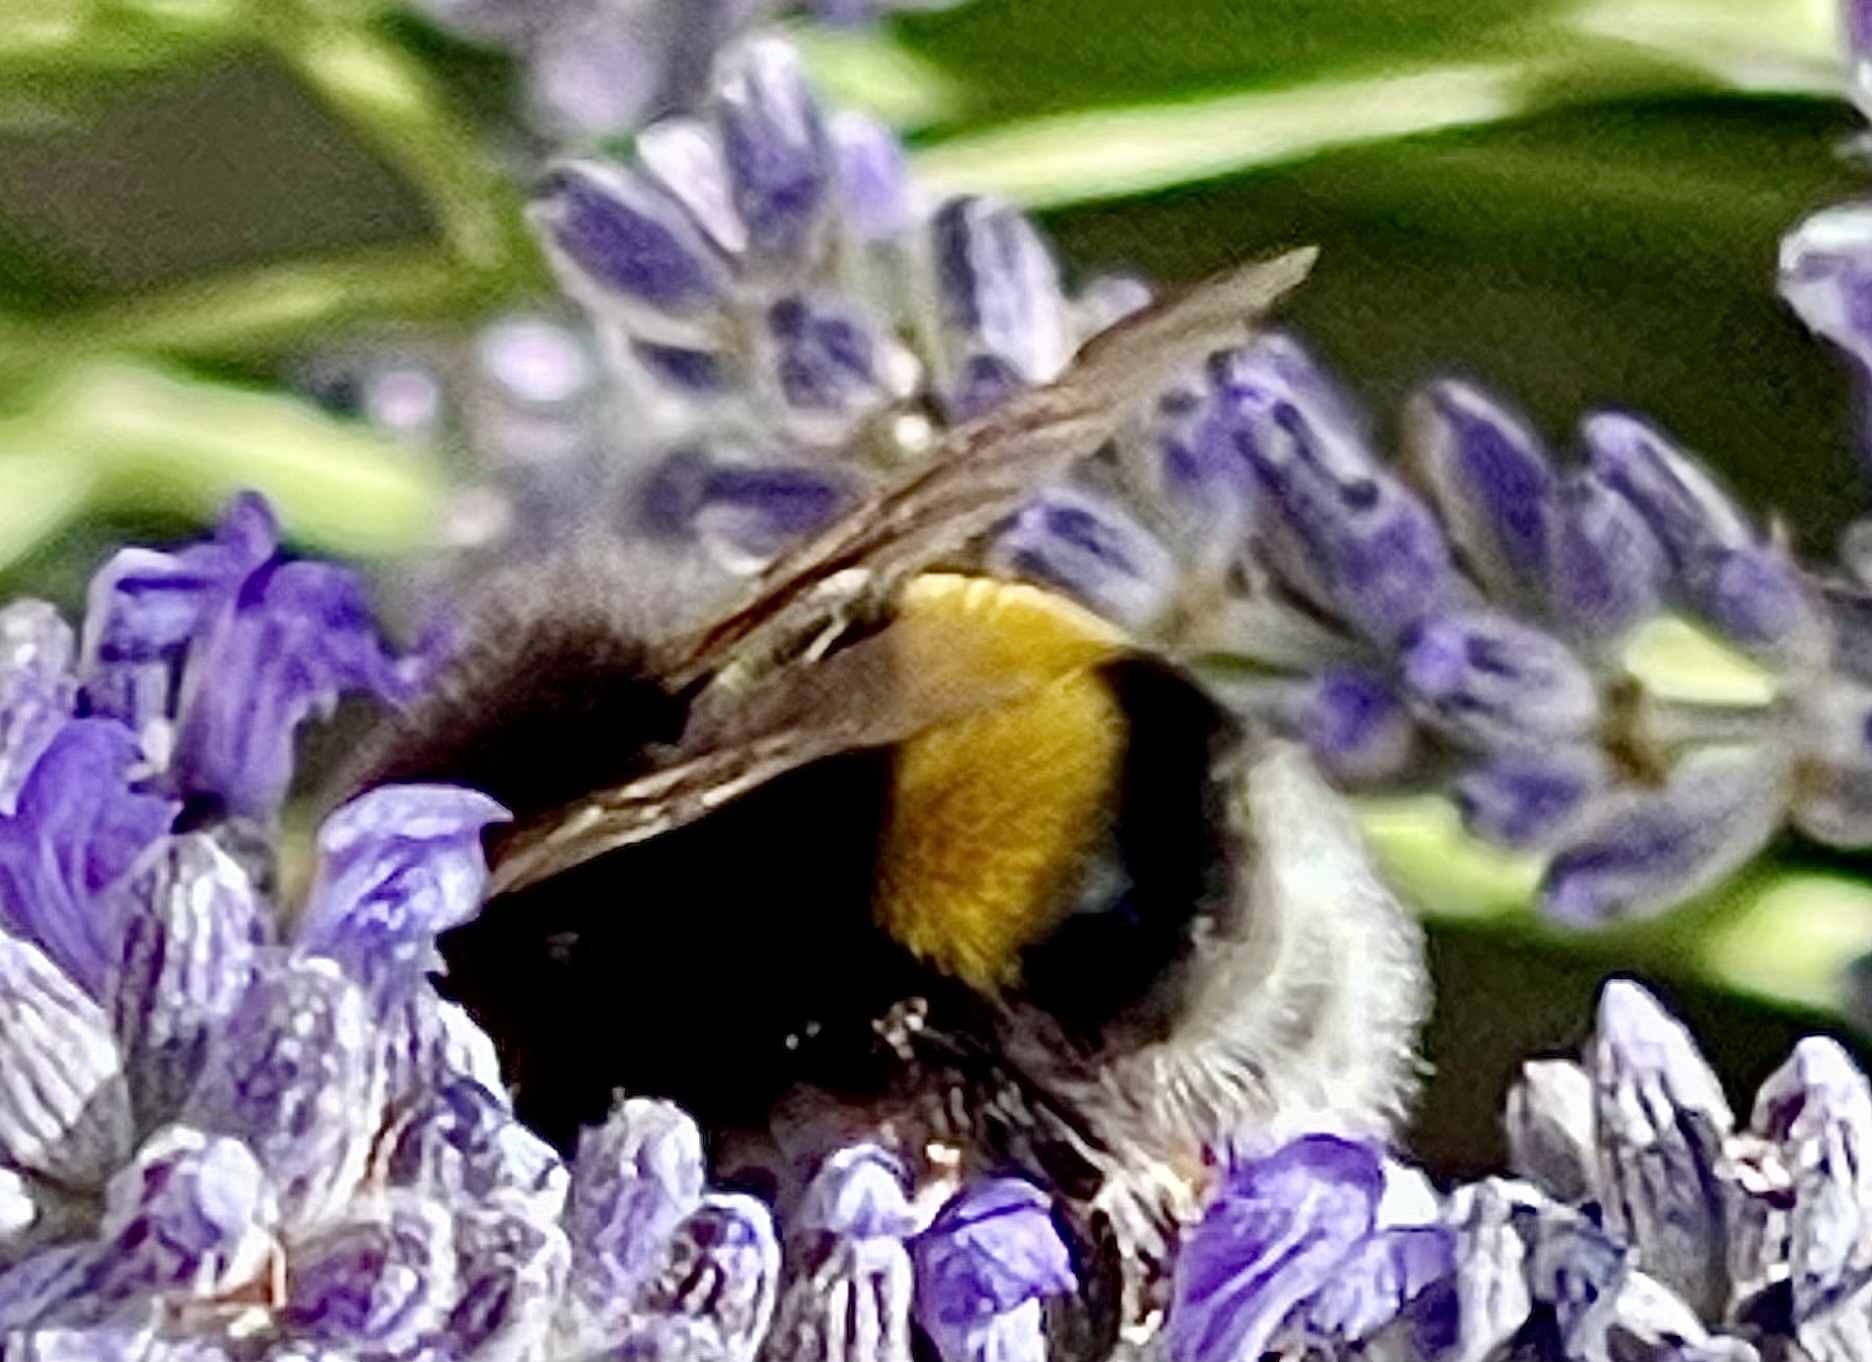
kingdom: Animalia
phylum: Arthropoda
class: Insecta
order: Hymenoptera
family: Apidae
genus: Bombus
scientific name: Bombus terrestris
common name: Buff-tailed bumblebee
